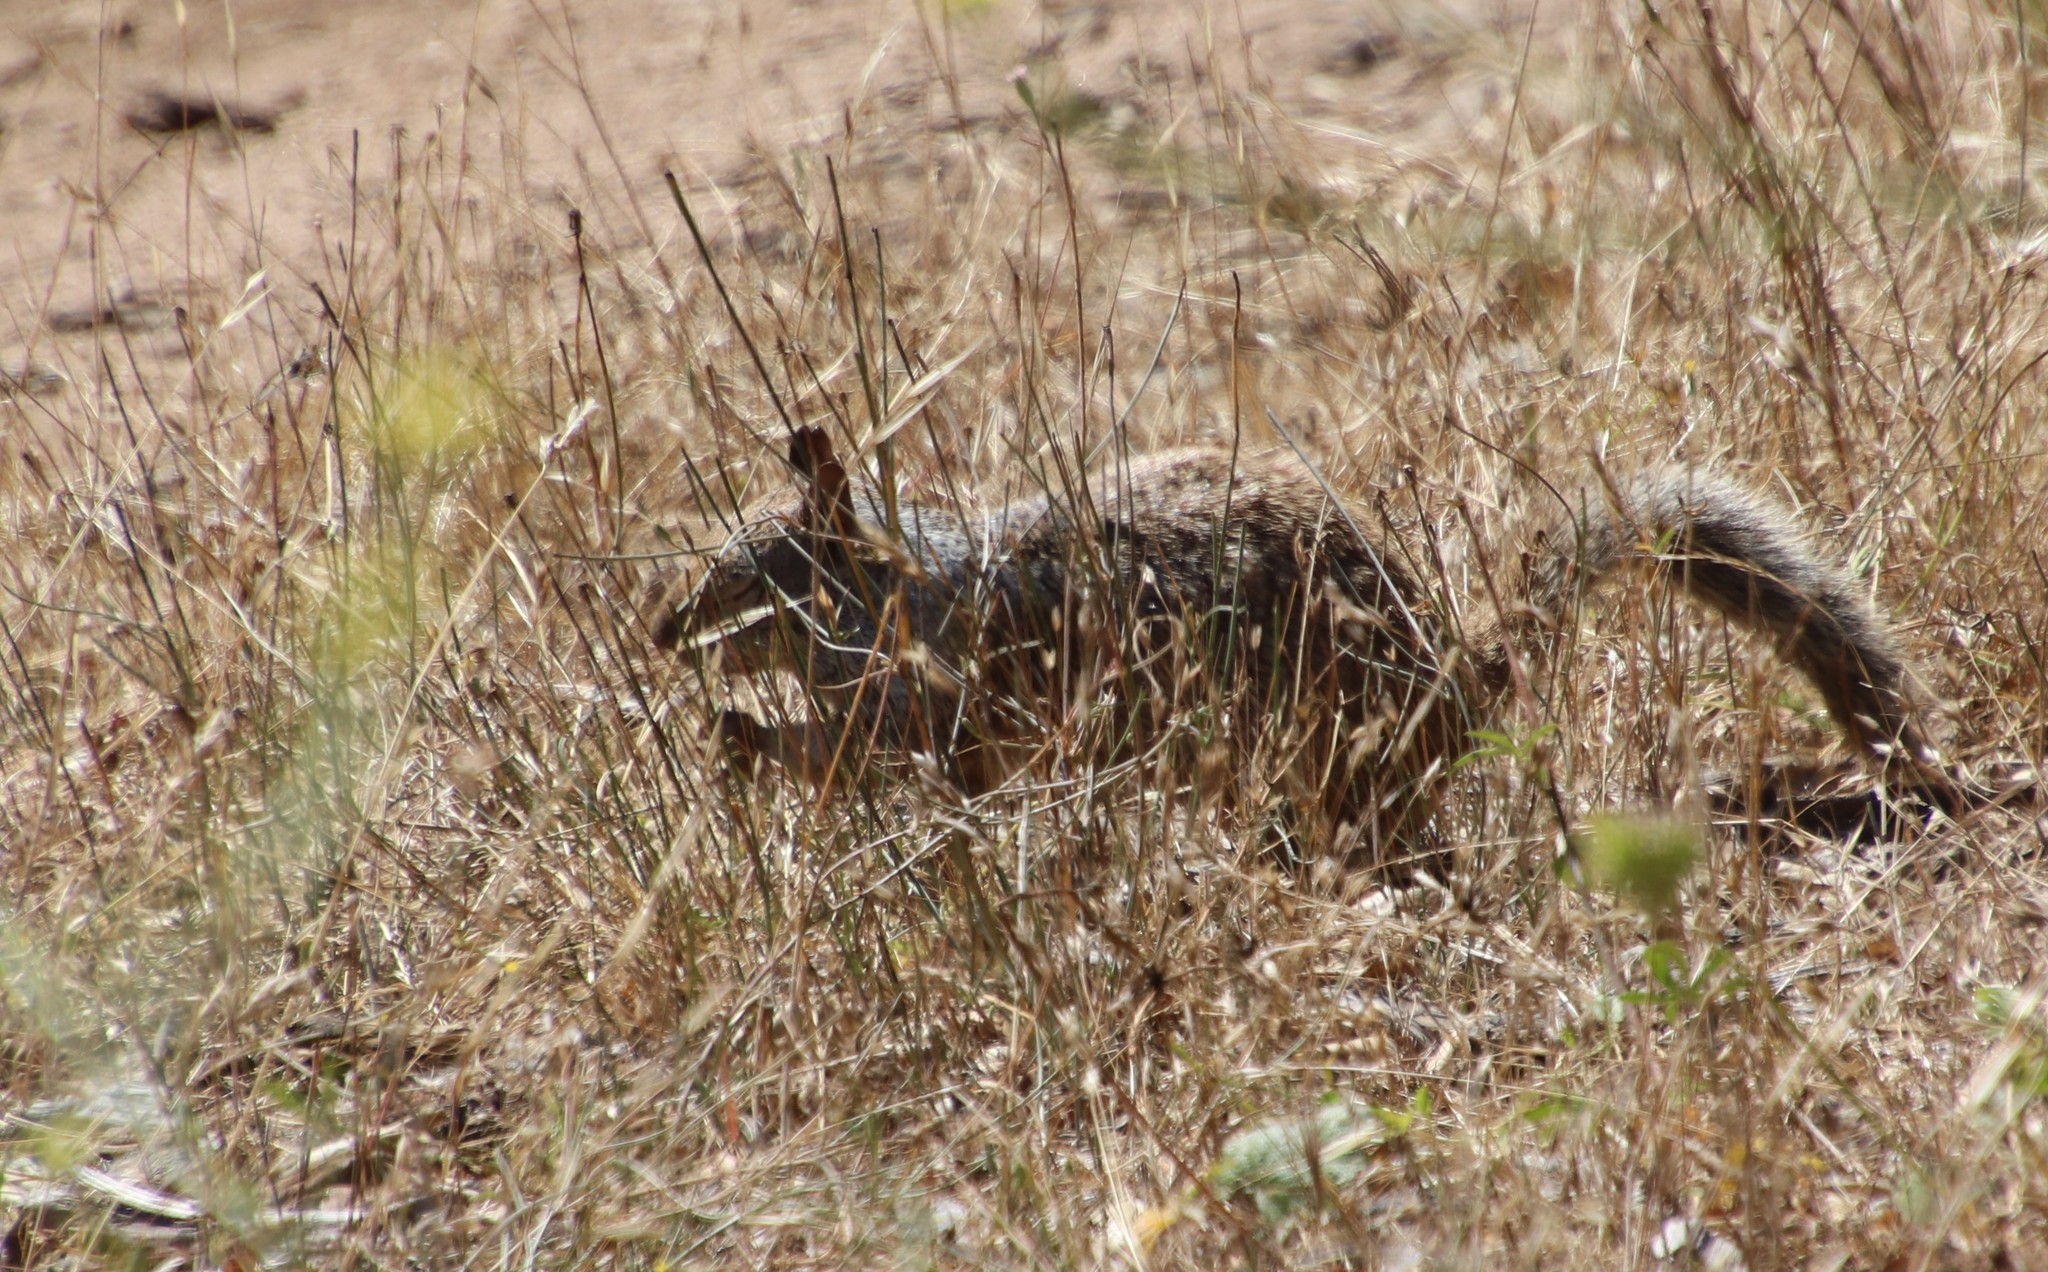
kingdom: Animalia
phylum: Chordata
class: Mammalia
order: Rodentia
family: Sciuridae
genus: Otospermophilus
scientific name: Otospermophilus beecheyi
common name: California ground squirrel
